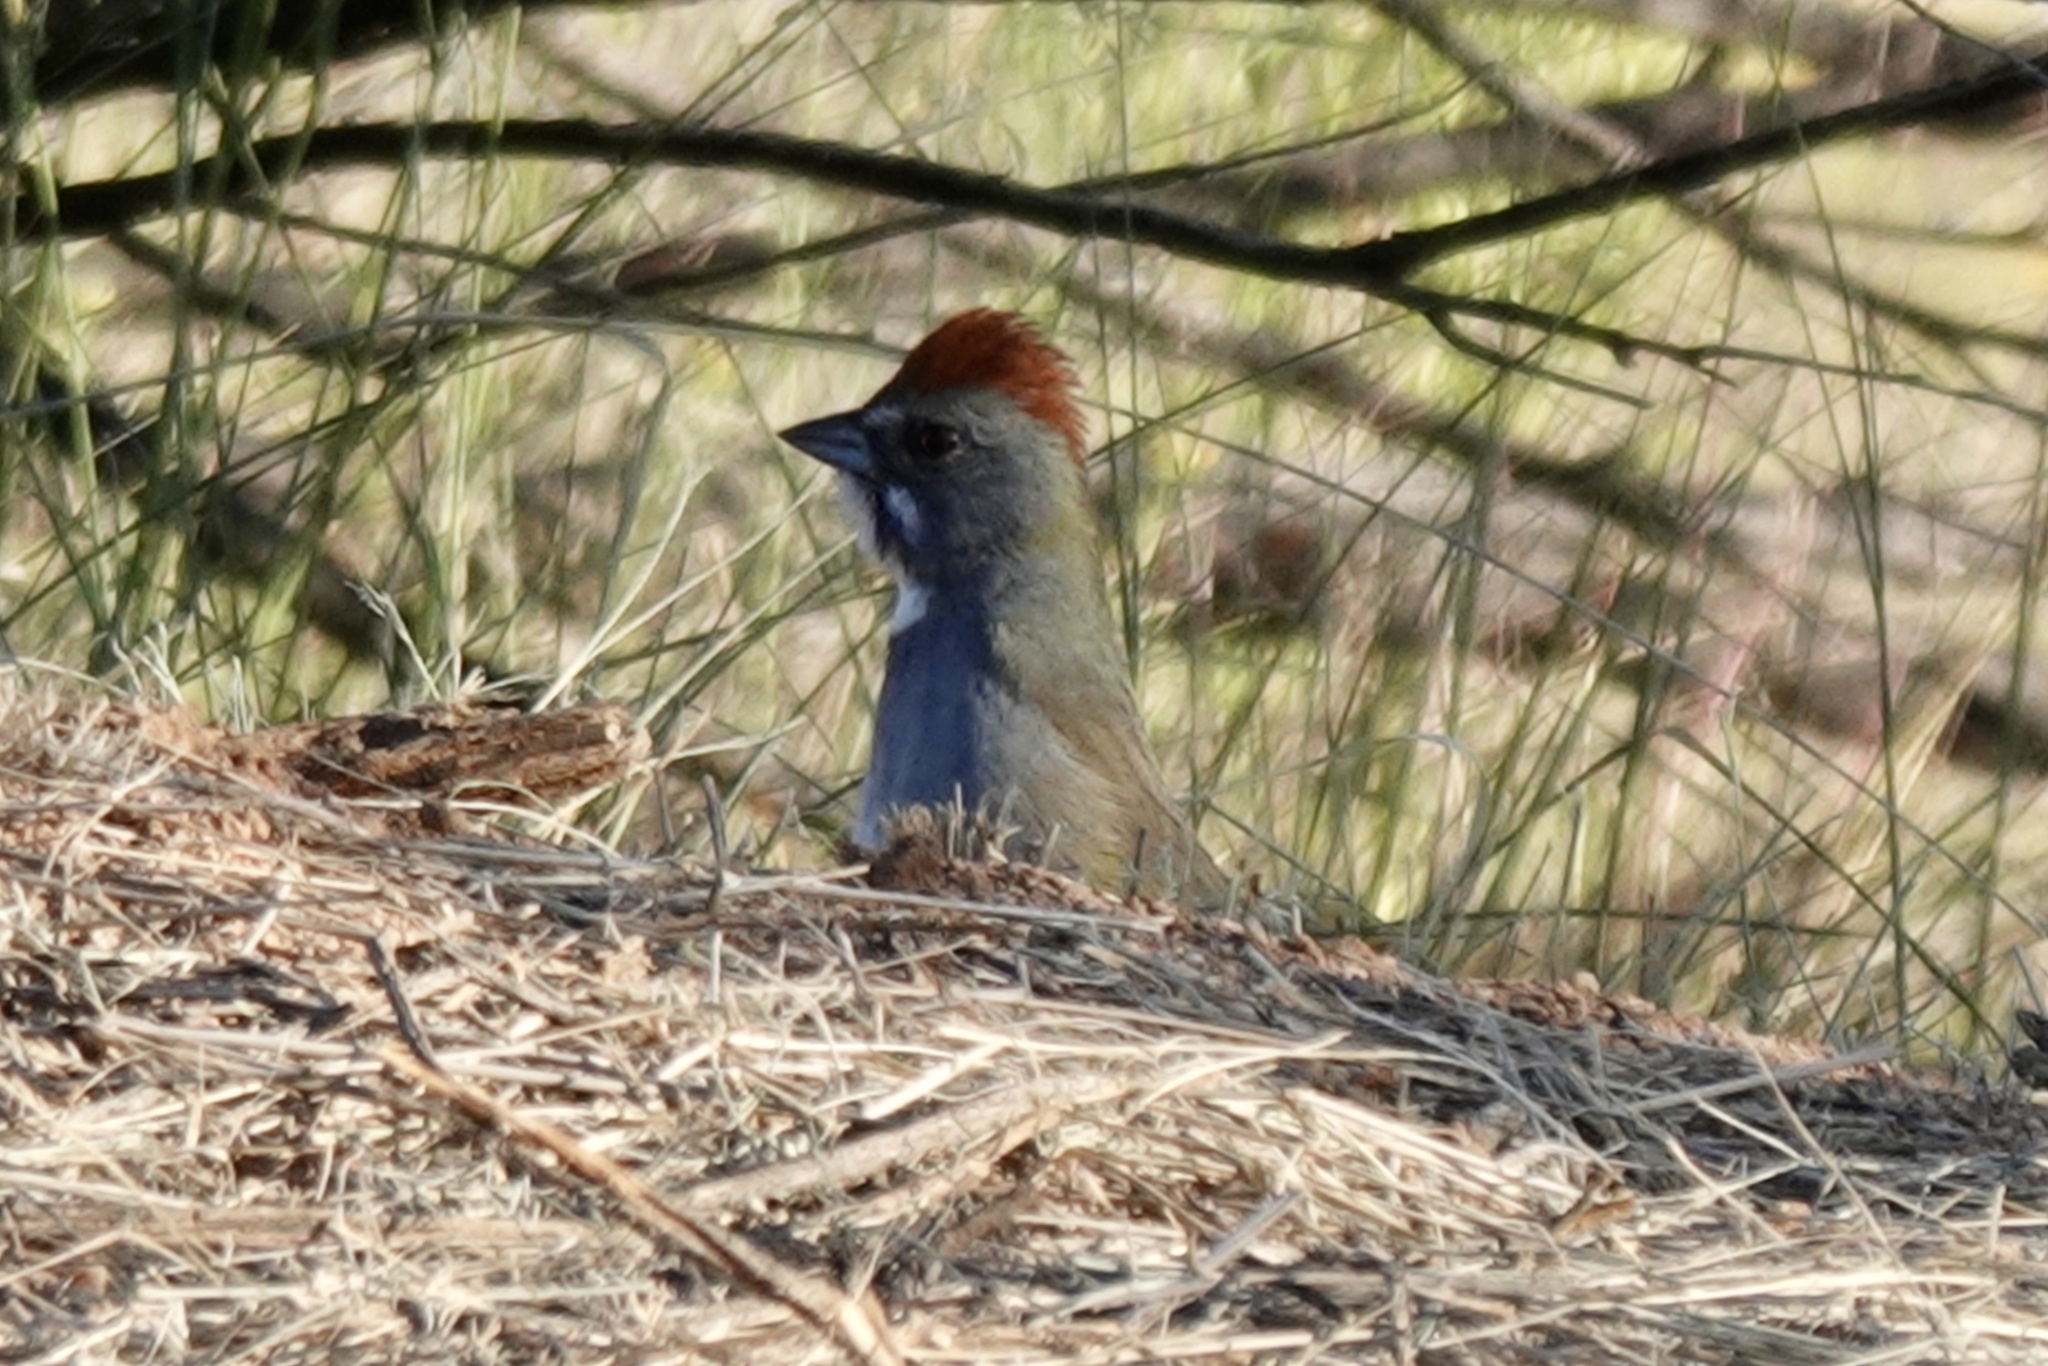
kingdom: Animalia
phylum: Chordata
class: Aves
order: Passeriformes
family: Passerellidae
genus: Pipilo
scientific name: Pipilo chlorurus
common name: Green-tailed towhee
